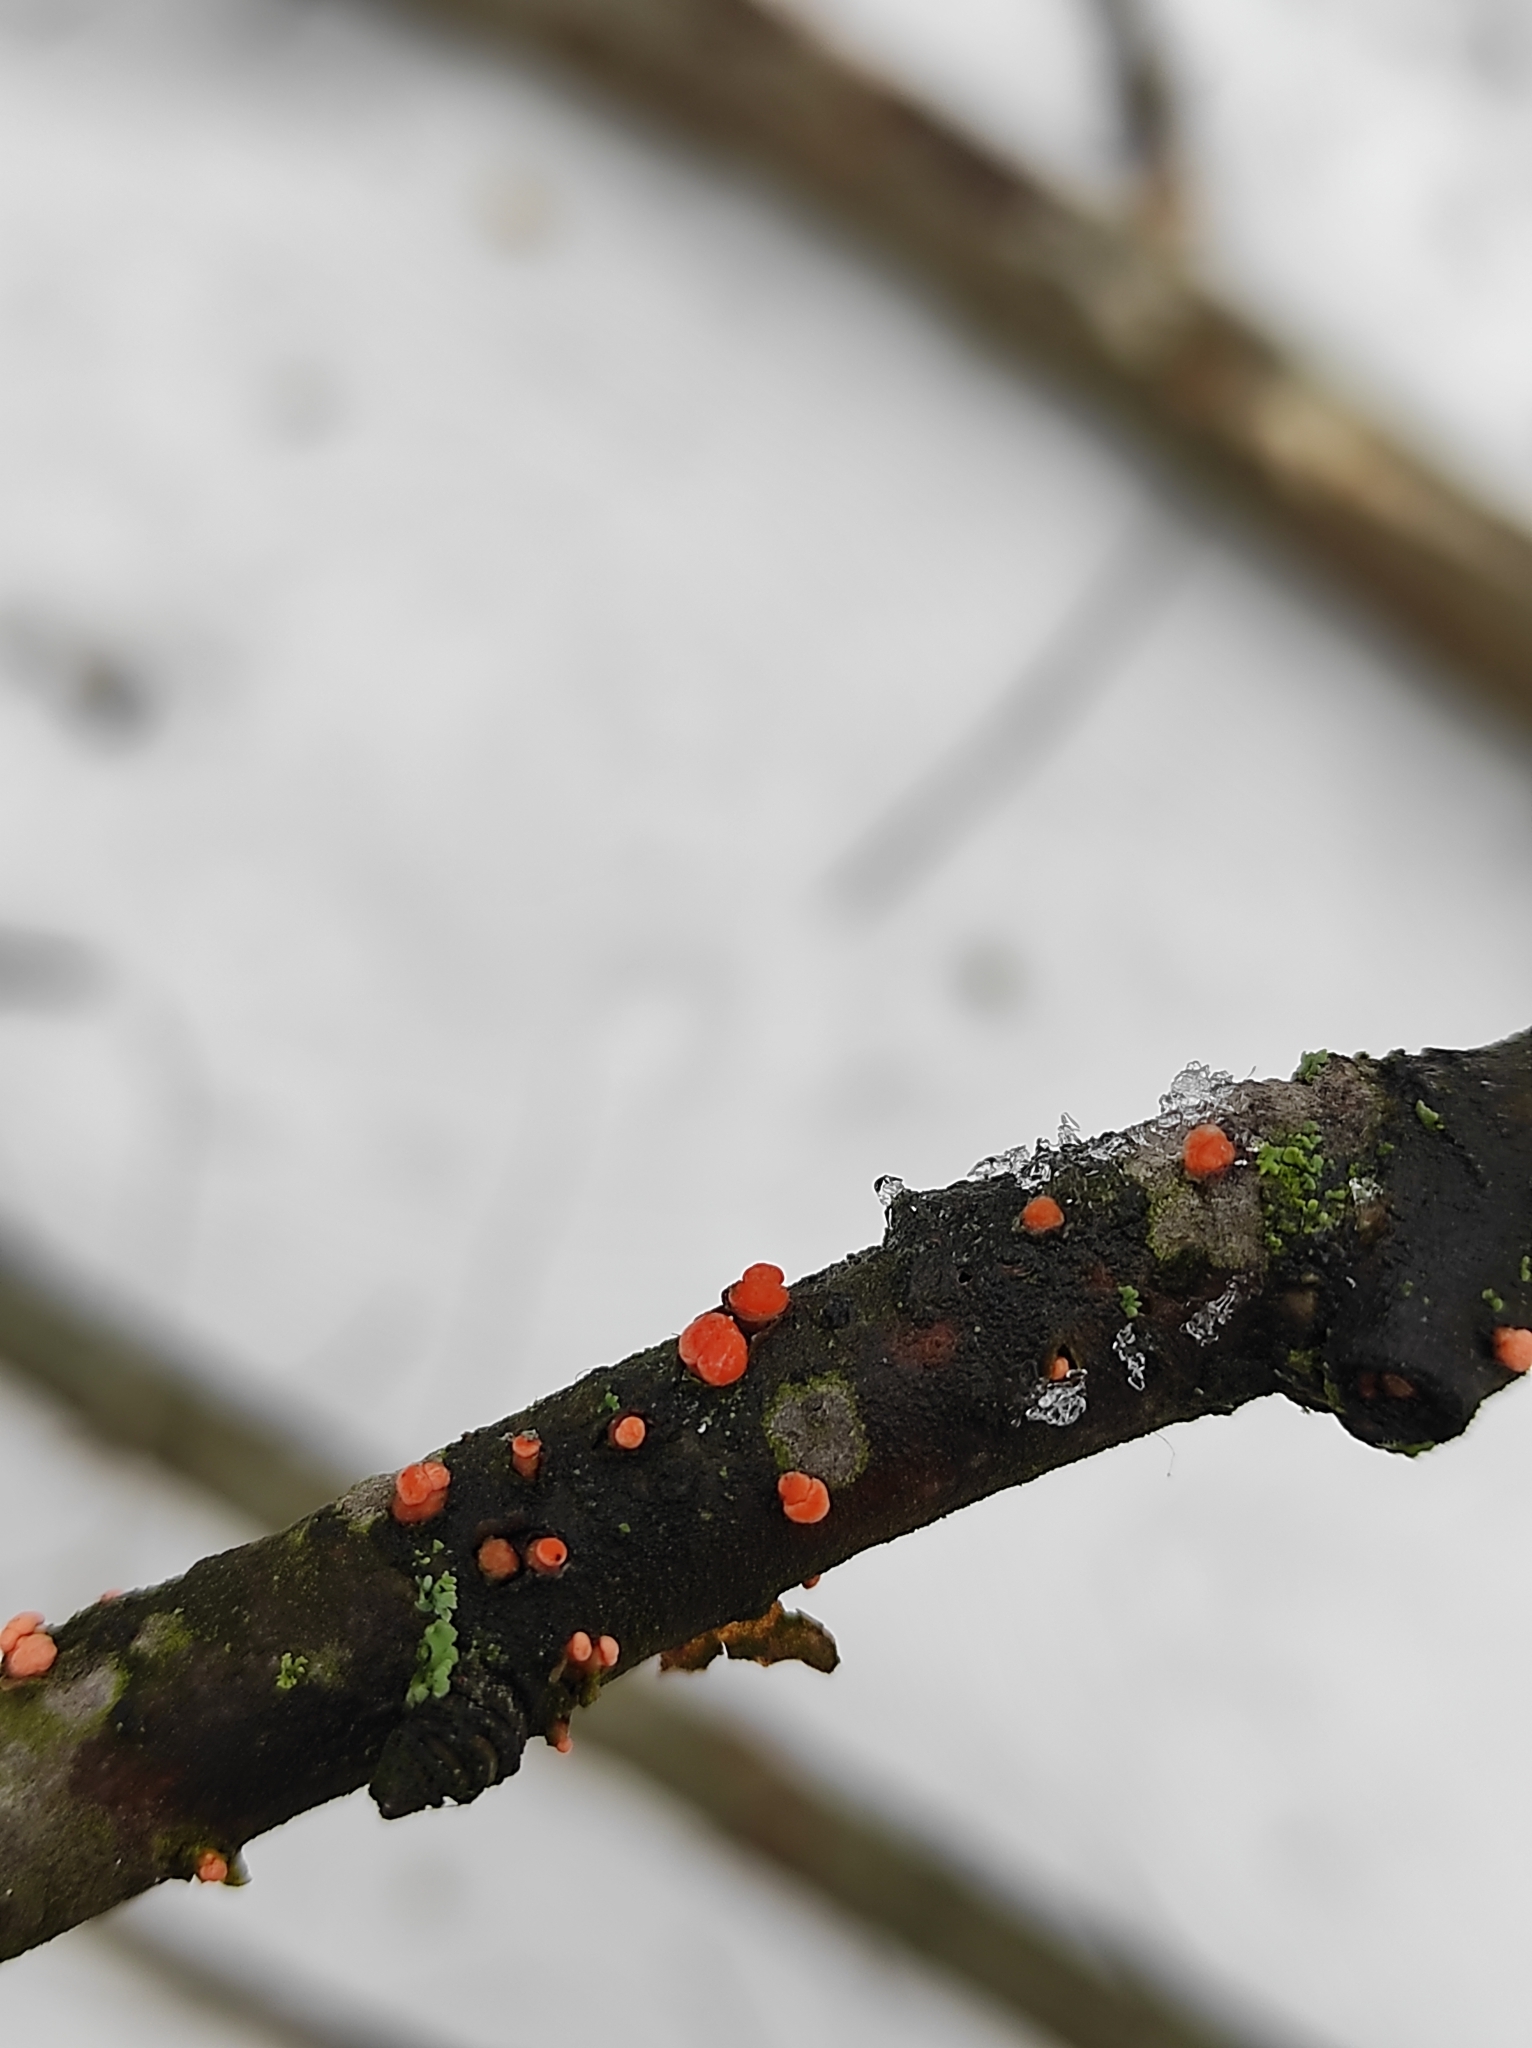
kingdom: Fungi
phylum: Ascomycota
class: Sordariomycetes
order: Hypocreales
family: Nectriaceae
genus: Nectria
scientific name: Nectria cinnabarina
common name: Coral spot
